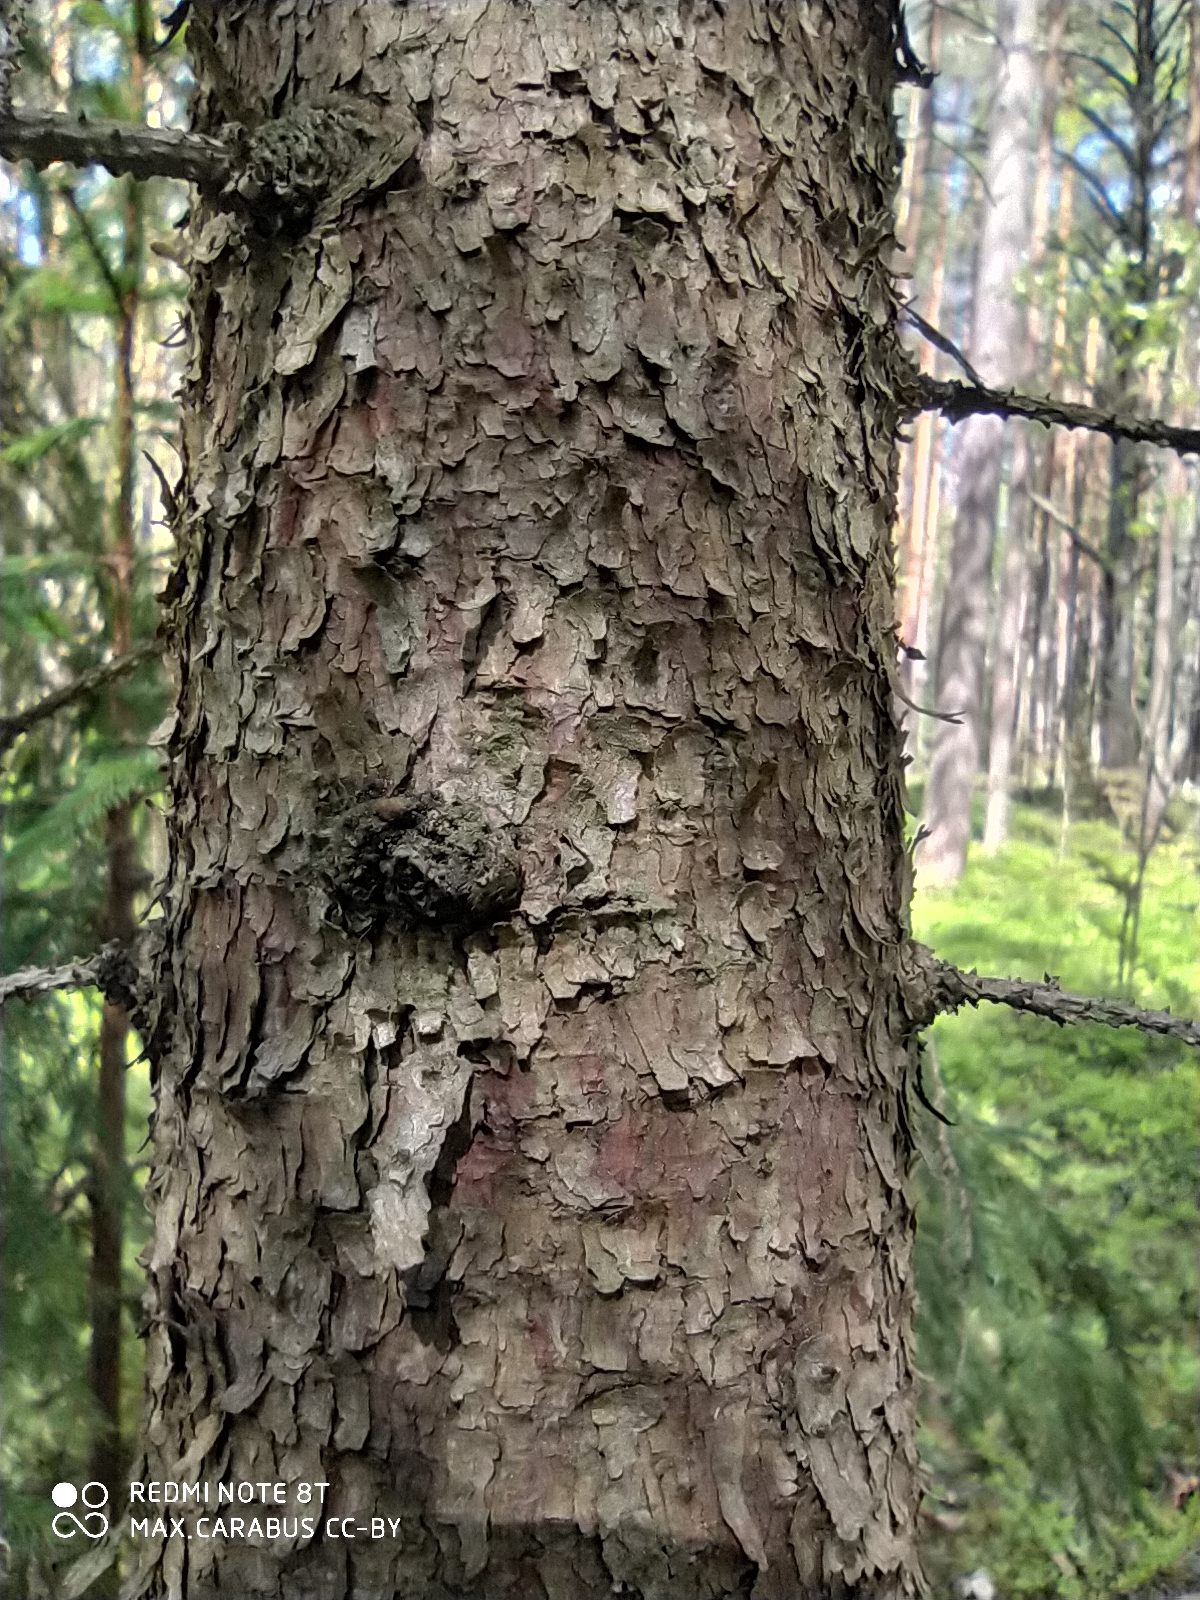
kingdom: Plantae
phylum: Tracheophyta
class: Pinopsida
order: Pinales
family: Pinaceae
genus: Picea
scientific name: Picea abies
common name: Norway spruce
